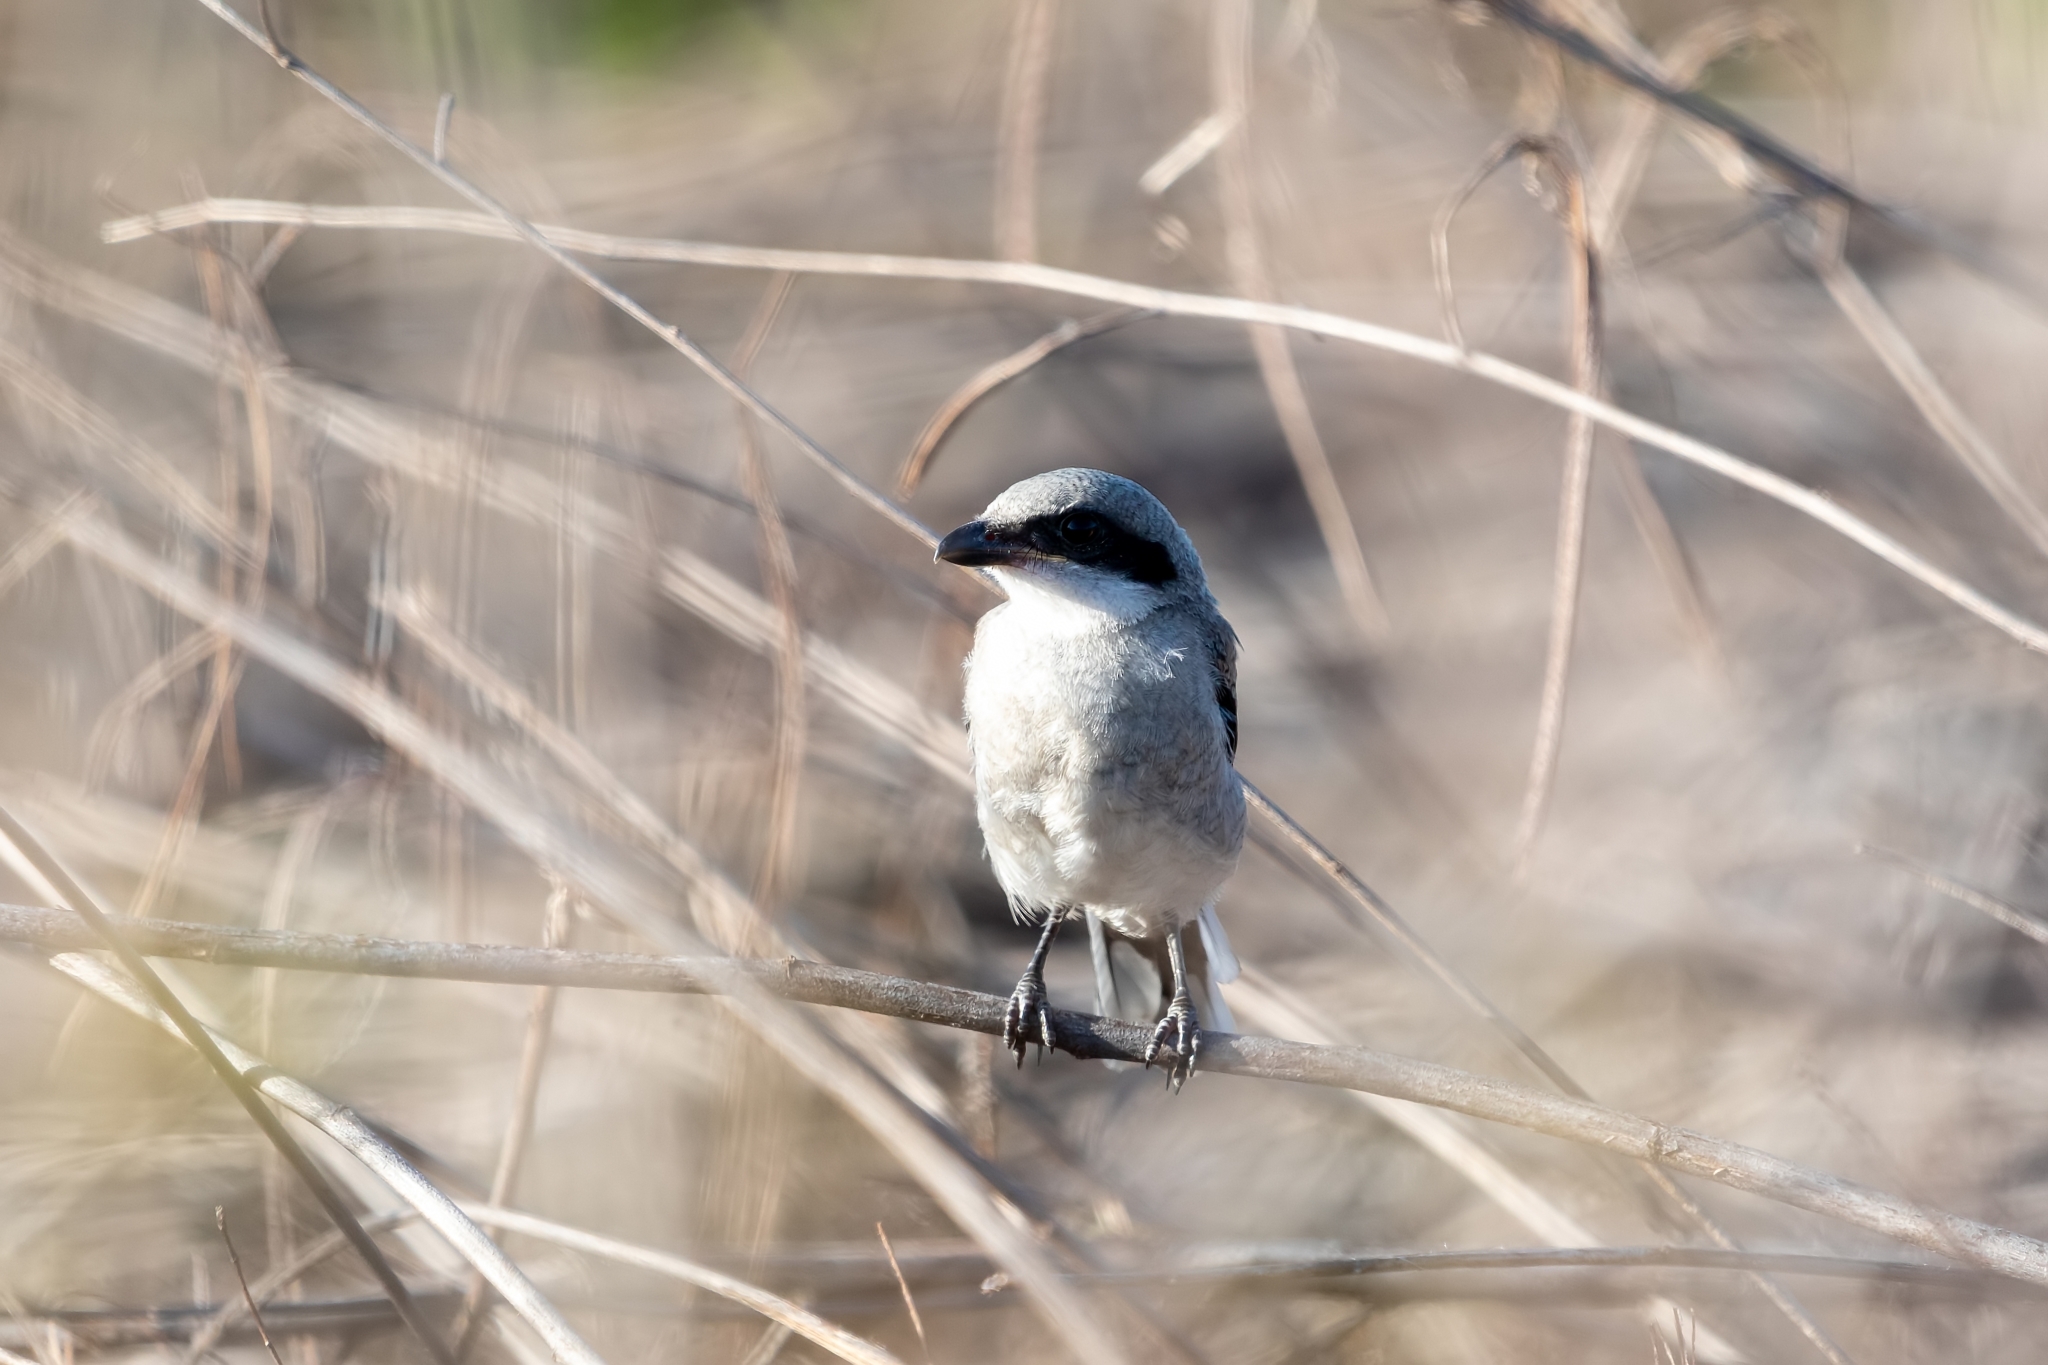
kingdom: Animalia
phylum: Chordata
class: Aves
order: Passeriformes
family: Laniidae
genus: Lanius
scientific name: Lanius ludovicianus
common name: Loggerhead shrike
